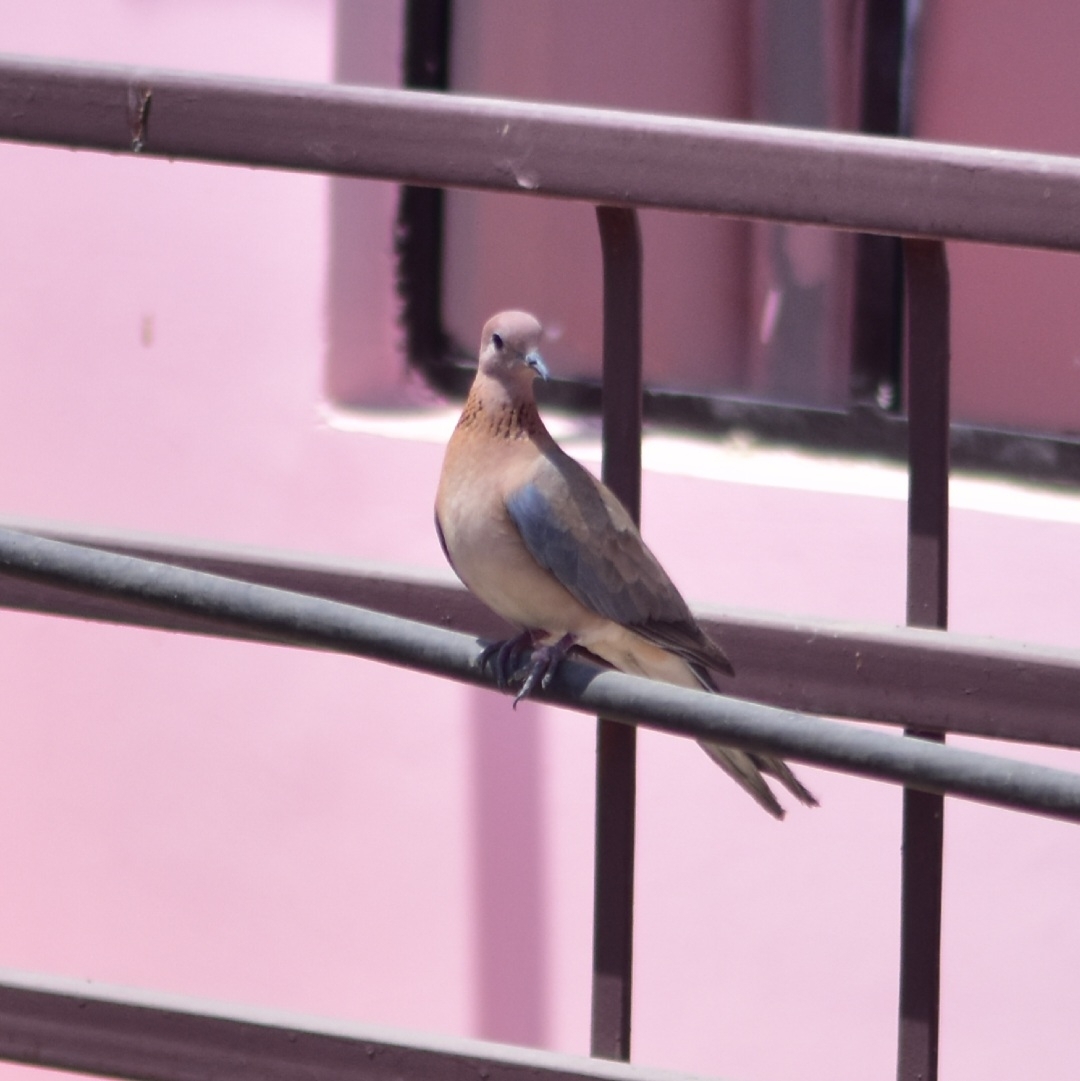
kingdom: Animalia
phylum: Chordata
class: Aves
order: Columbiformes
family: Columbidae
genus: Spilopelia
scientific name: Spilopelia senegalensis
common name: Laughing dove
